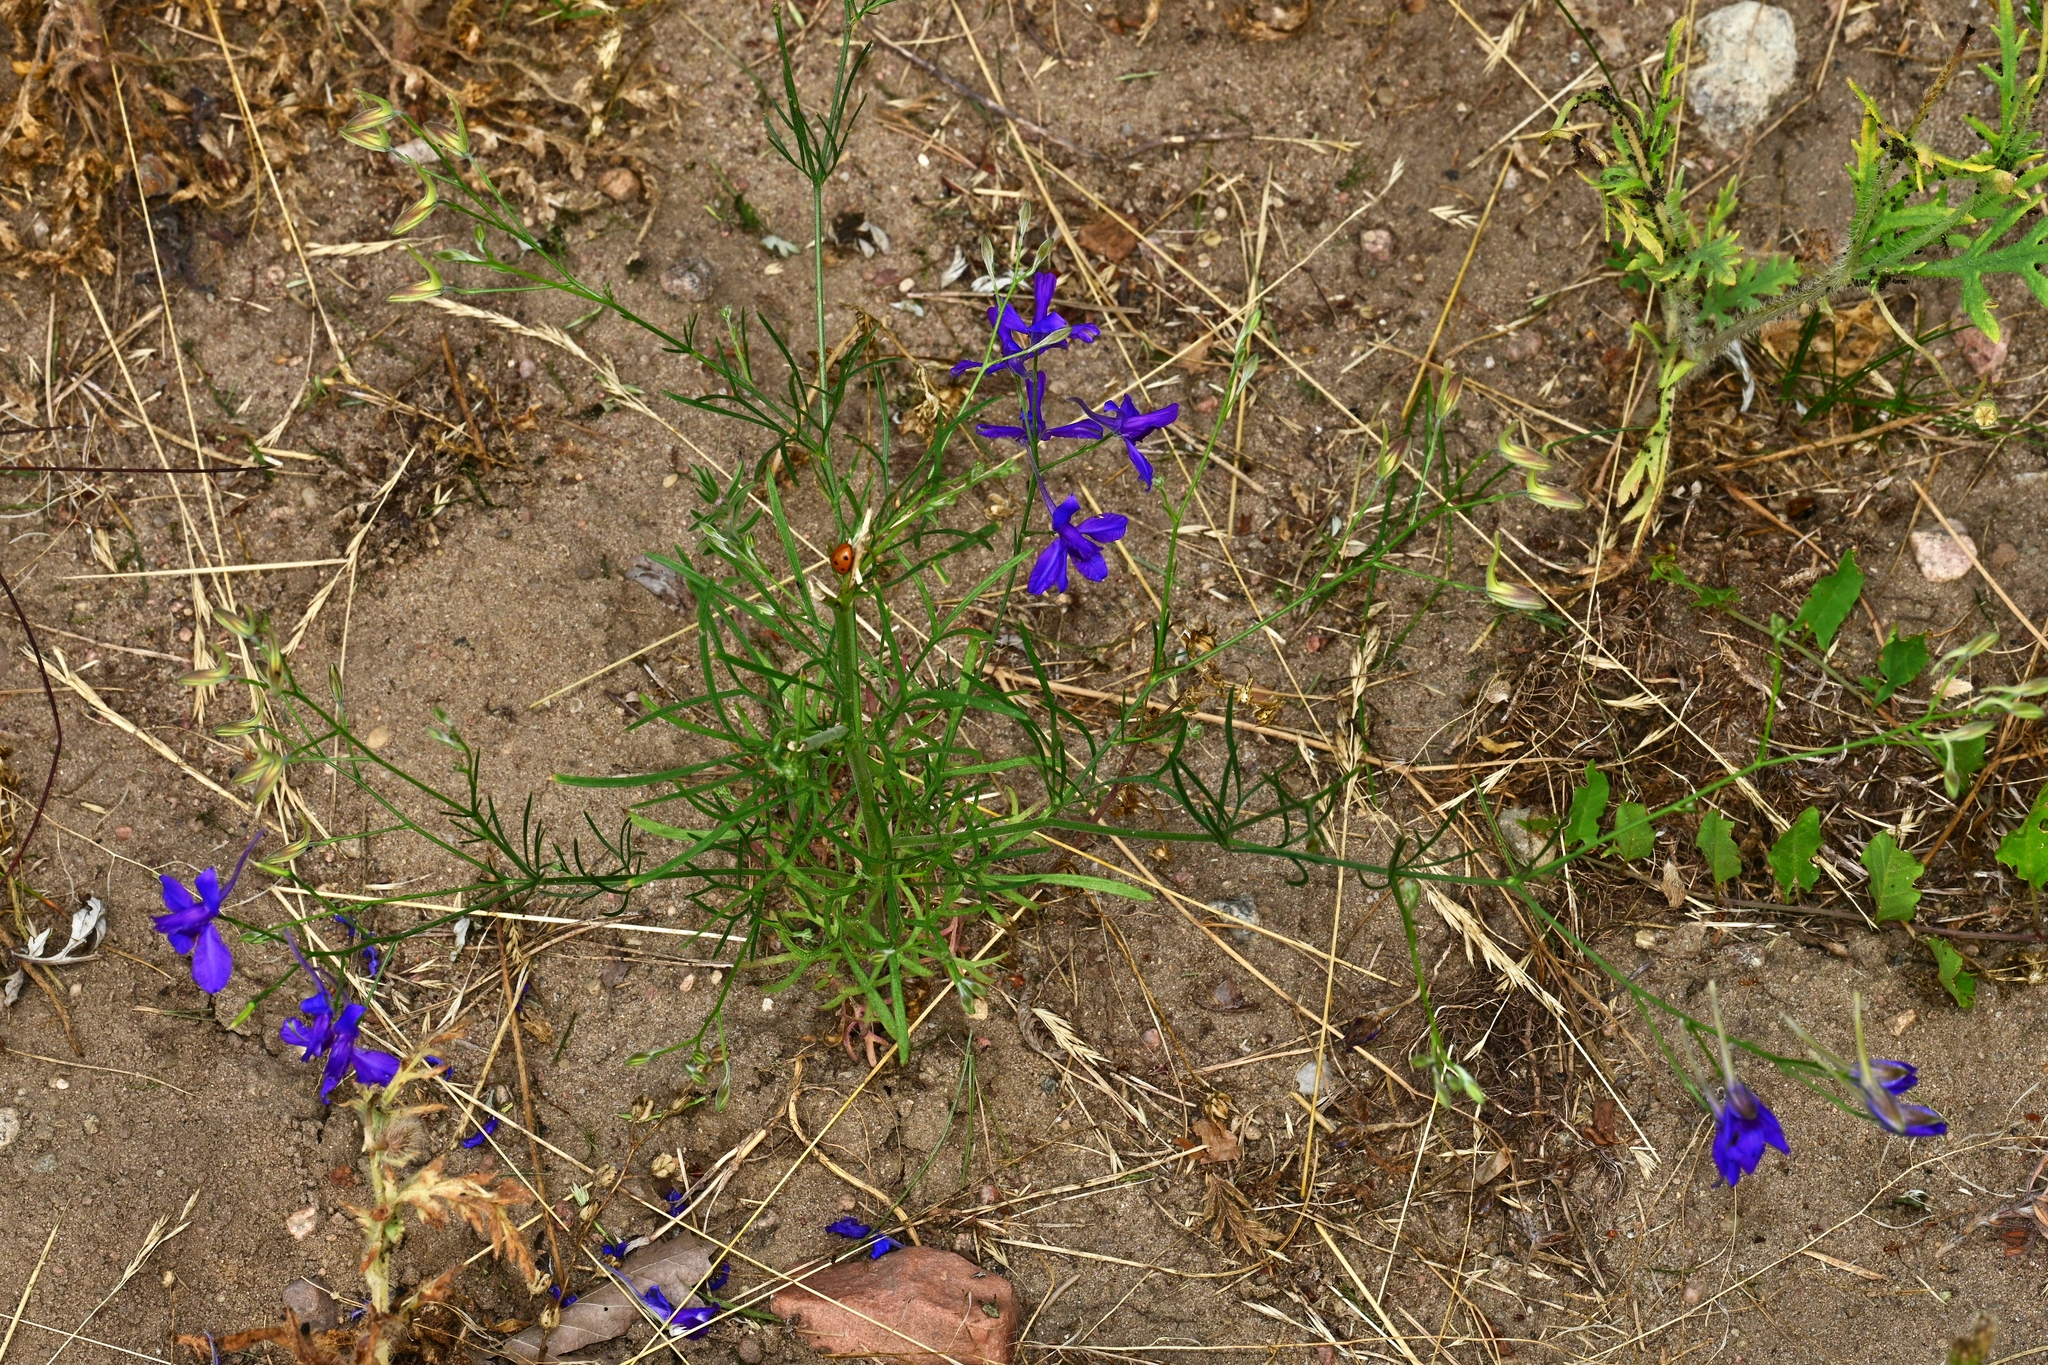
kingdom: Plantae
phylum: Tracheophyta
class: Magnoliopsida
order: Ranunculales
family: Ranunculaceae
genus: Delphinium
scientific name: Delphinium consolida
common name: Branching larkspur
